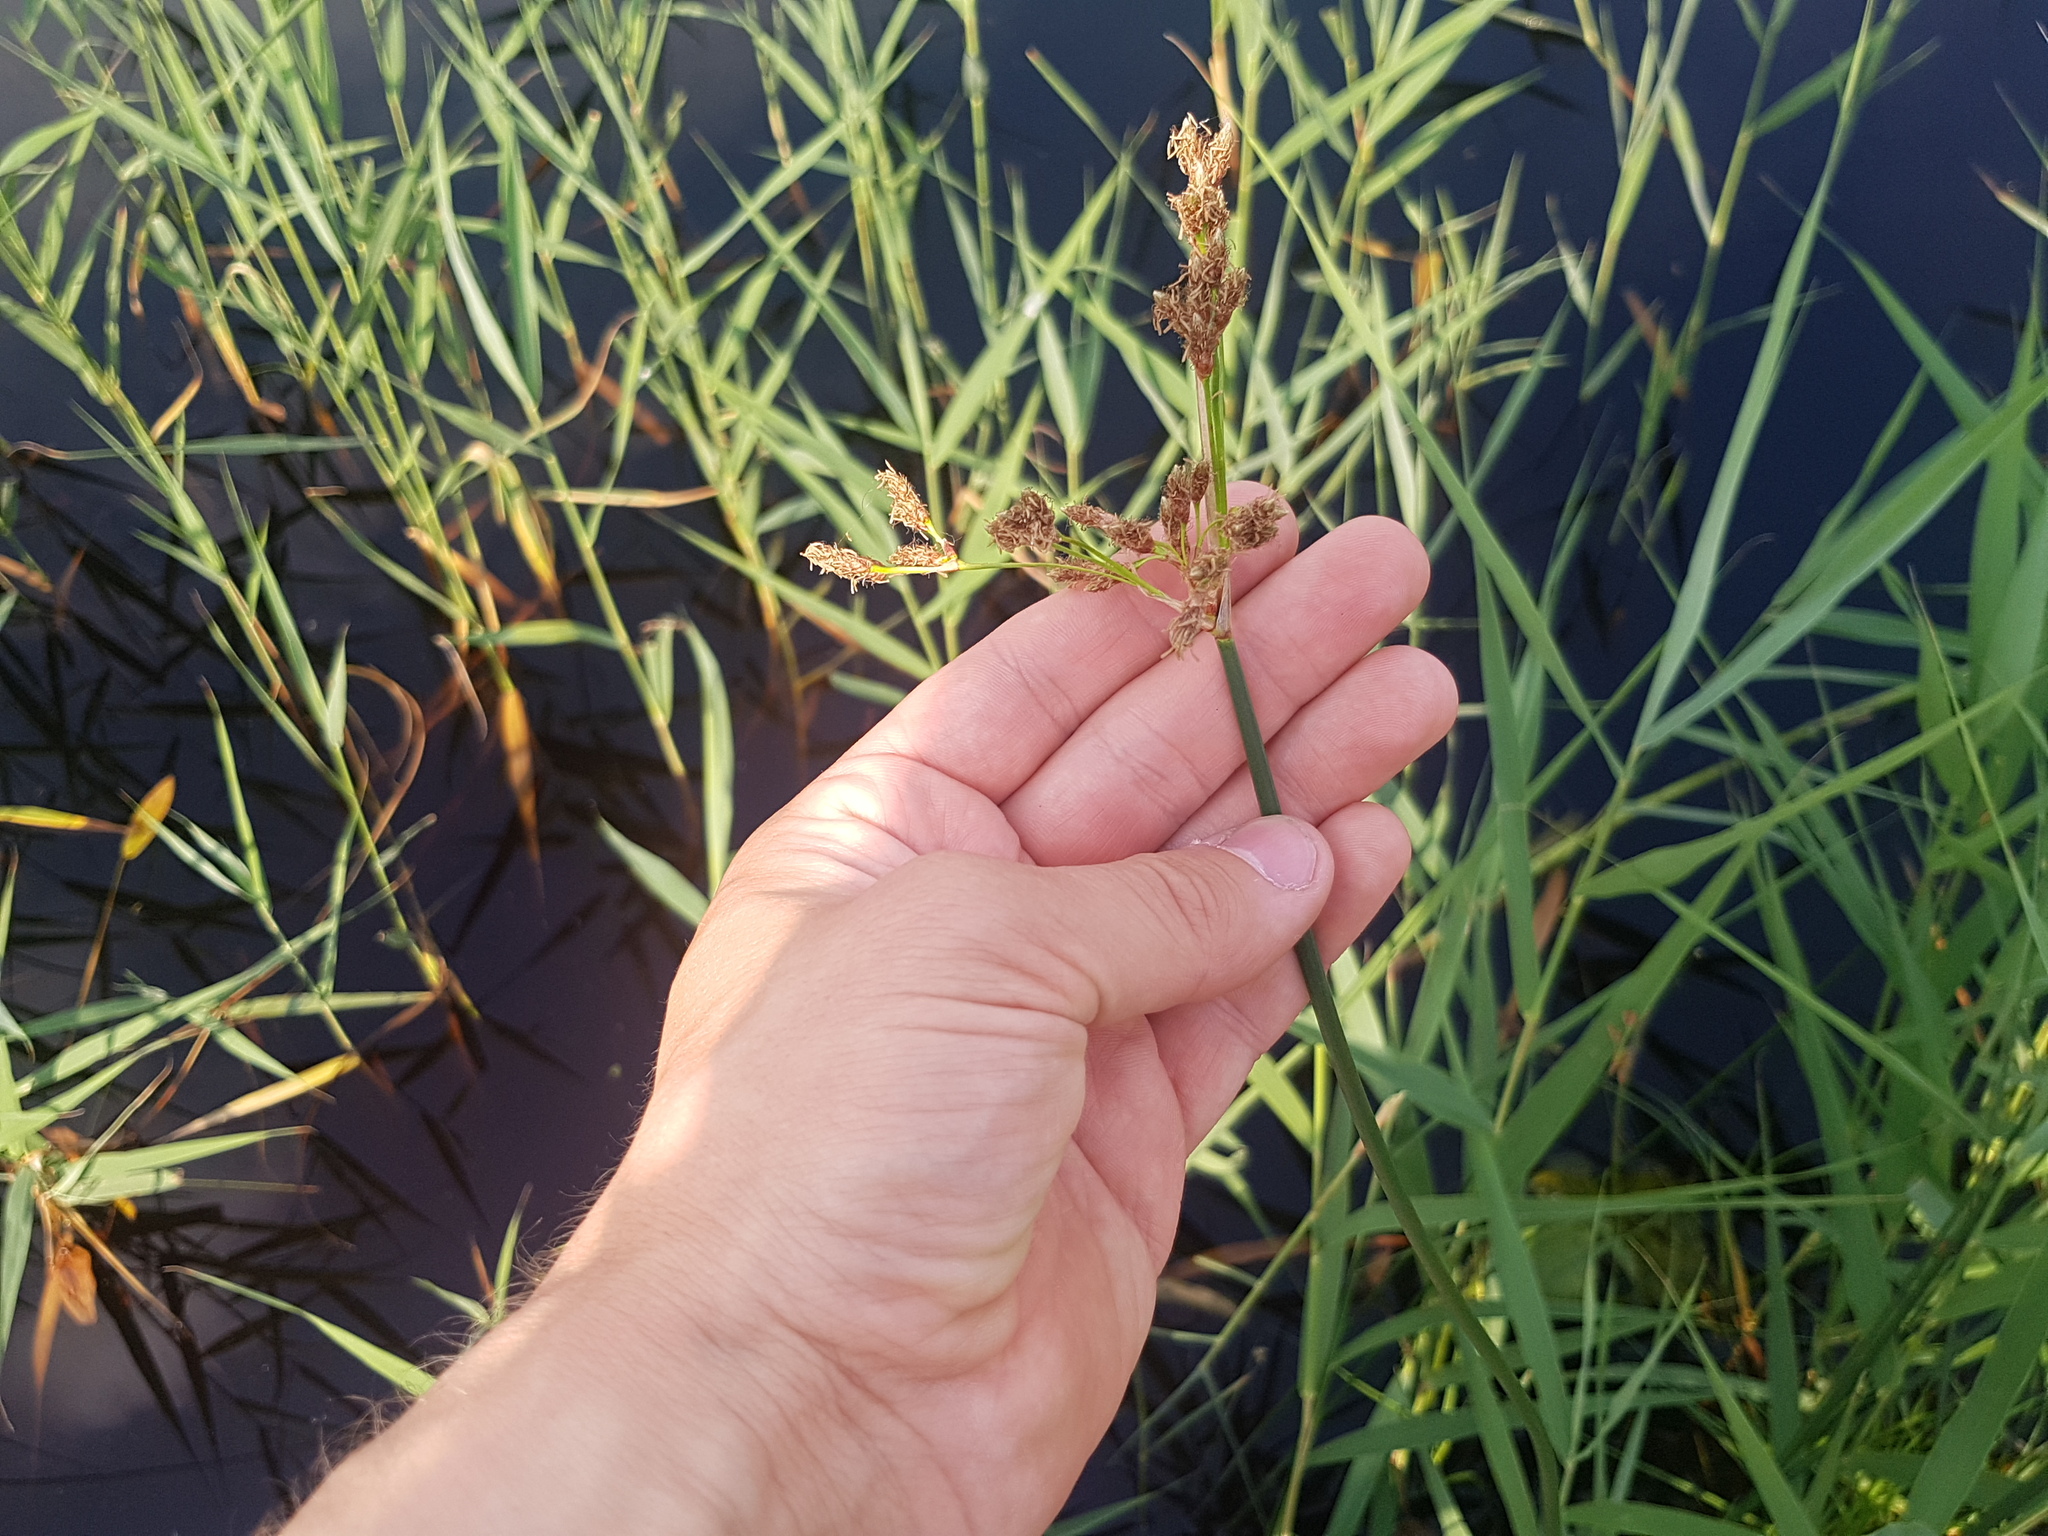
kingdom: Plantae
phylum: Tracheophyta
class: Liliopsida
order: Poales
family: Cyperaceae
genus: Schoenoplectus
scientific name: Schoenoplectus lacustris
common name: Common club-rush
